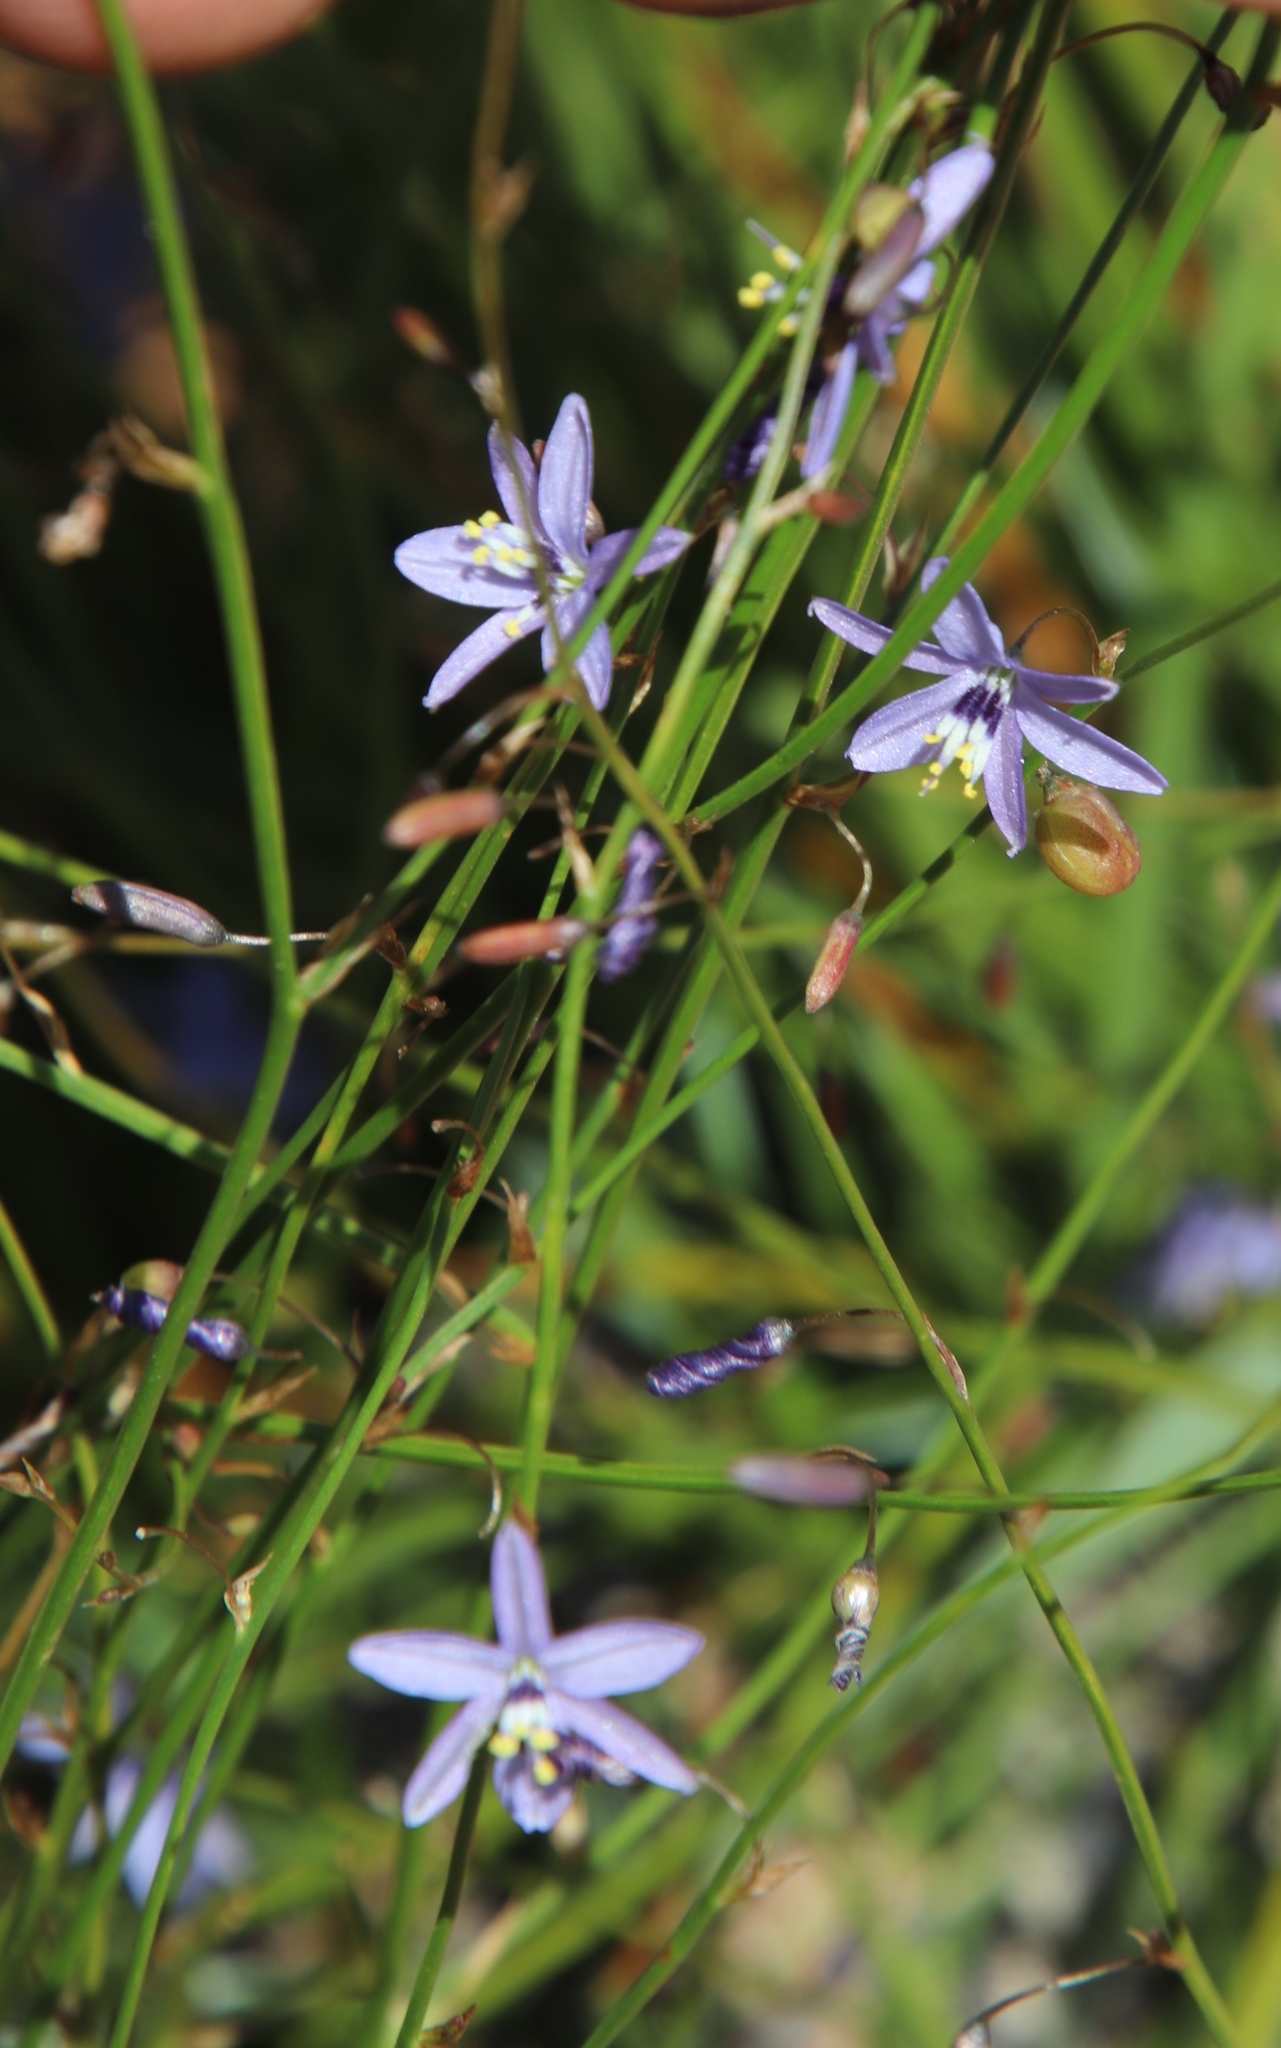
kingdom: Plantae
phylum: Tracheophyta
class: Liliopsida
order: Asparagales
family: Asphodelaceae
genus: Caesia
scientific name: Caesia contorta
